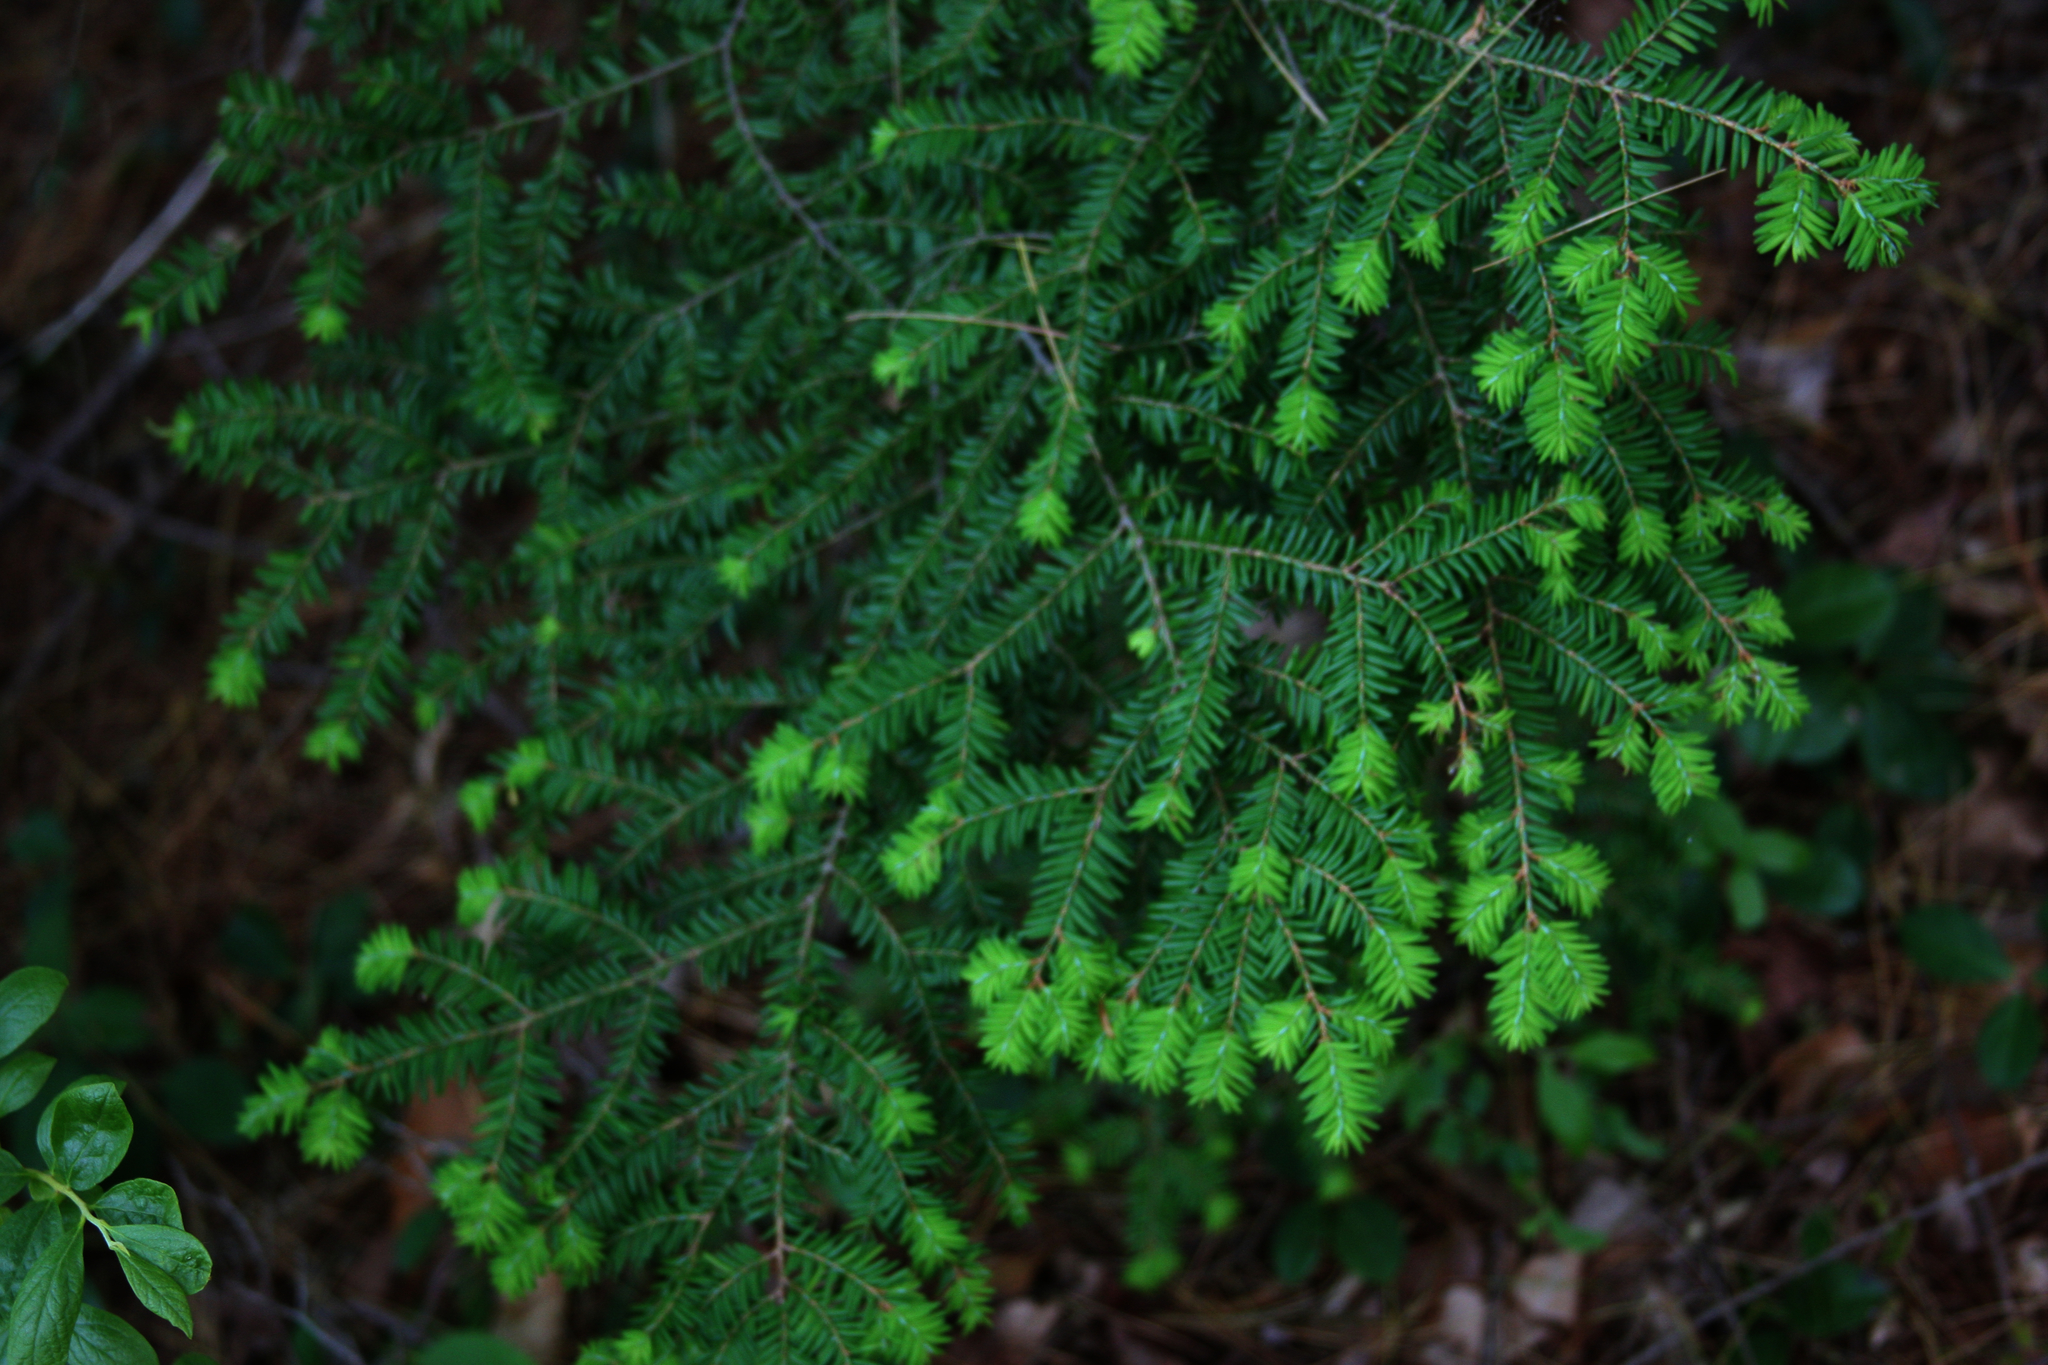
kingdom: Plantae
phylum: Tracheophyta
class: Pinopsida
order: Pinales
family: Pinaceae
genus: Tsuga
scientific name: Tsuga canadensis
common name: Eastern hemlock
